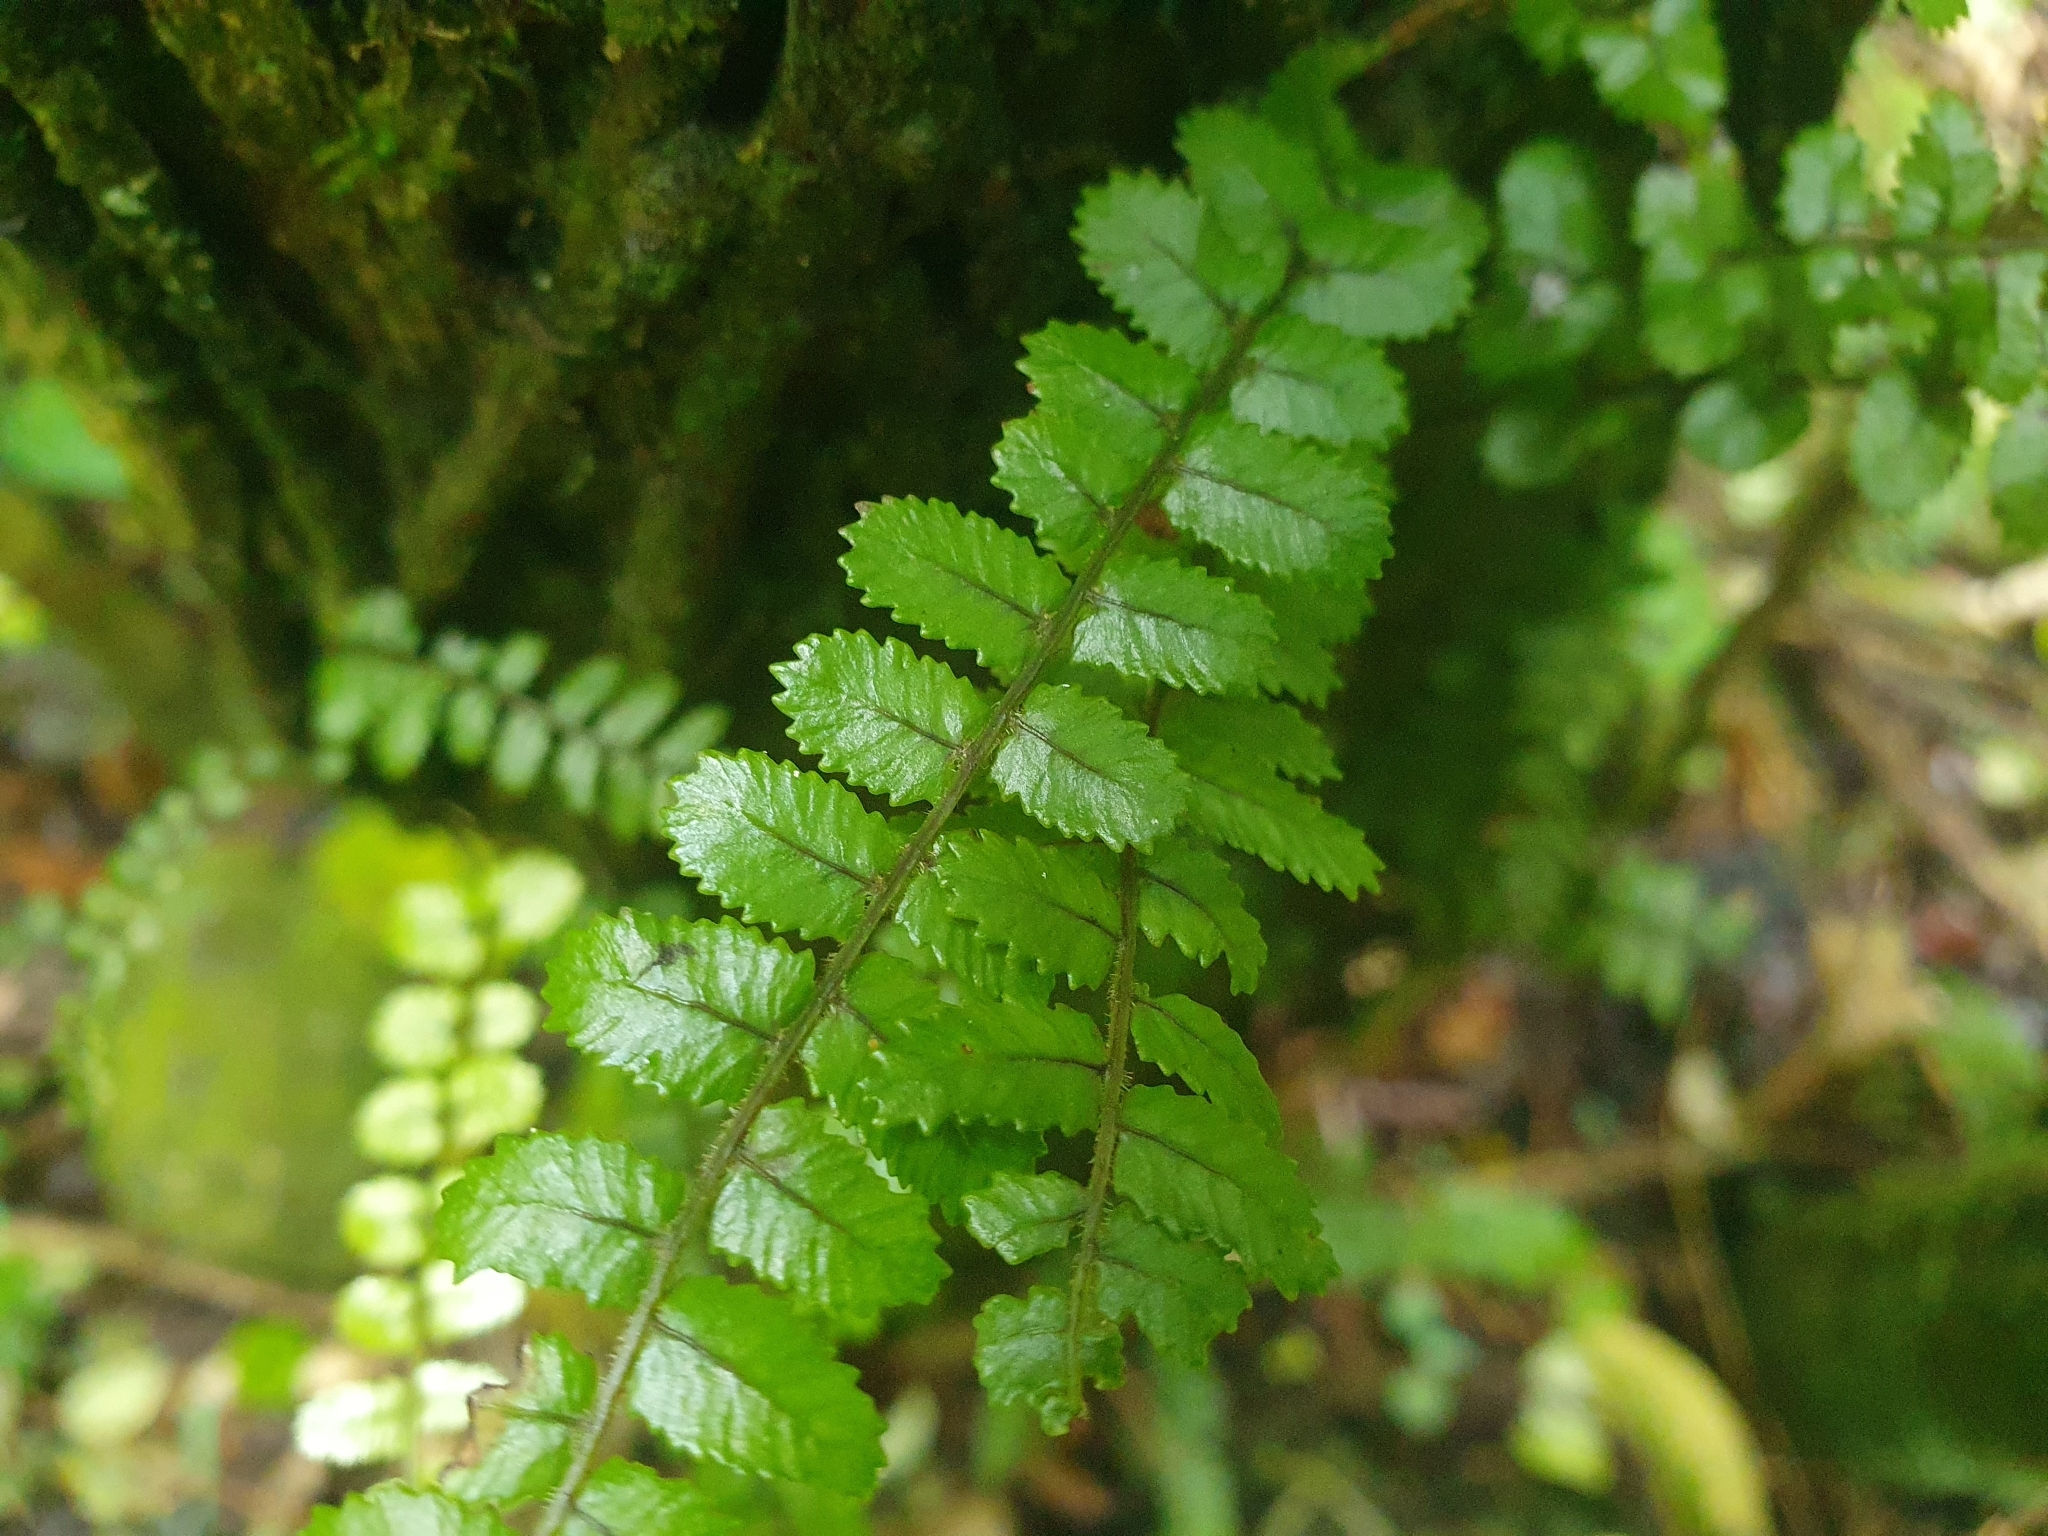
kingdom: Plantae
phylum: Tracheophyta
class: Polypodiopsida
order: Polypodiales
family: Blechnaceae
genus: Icarus
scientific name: Icarus filiformis
